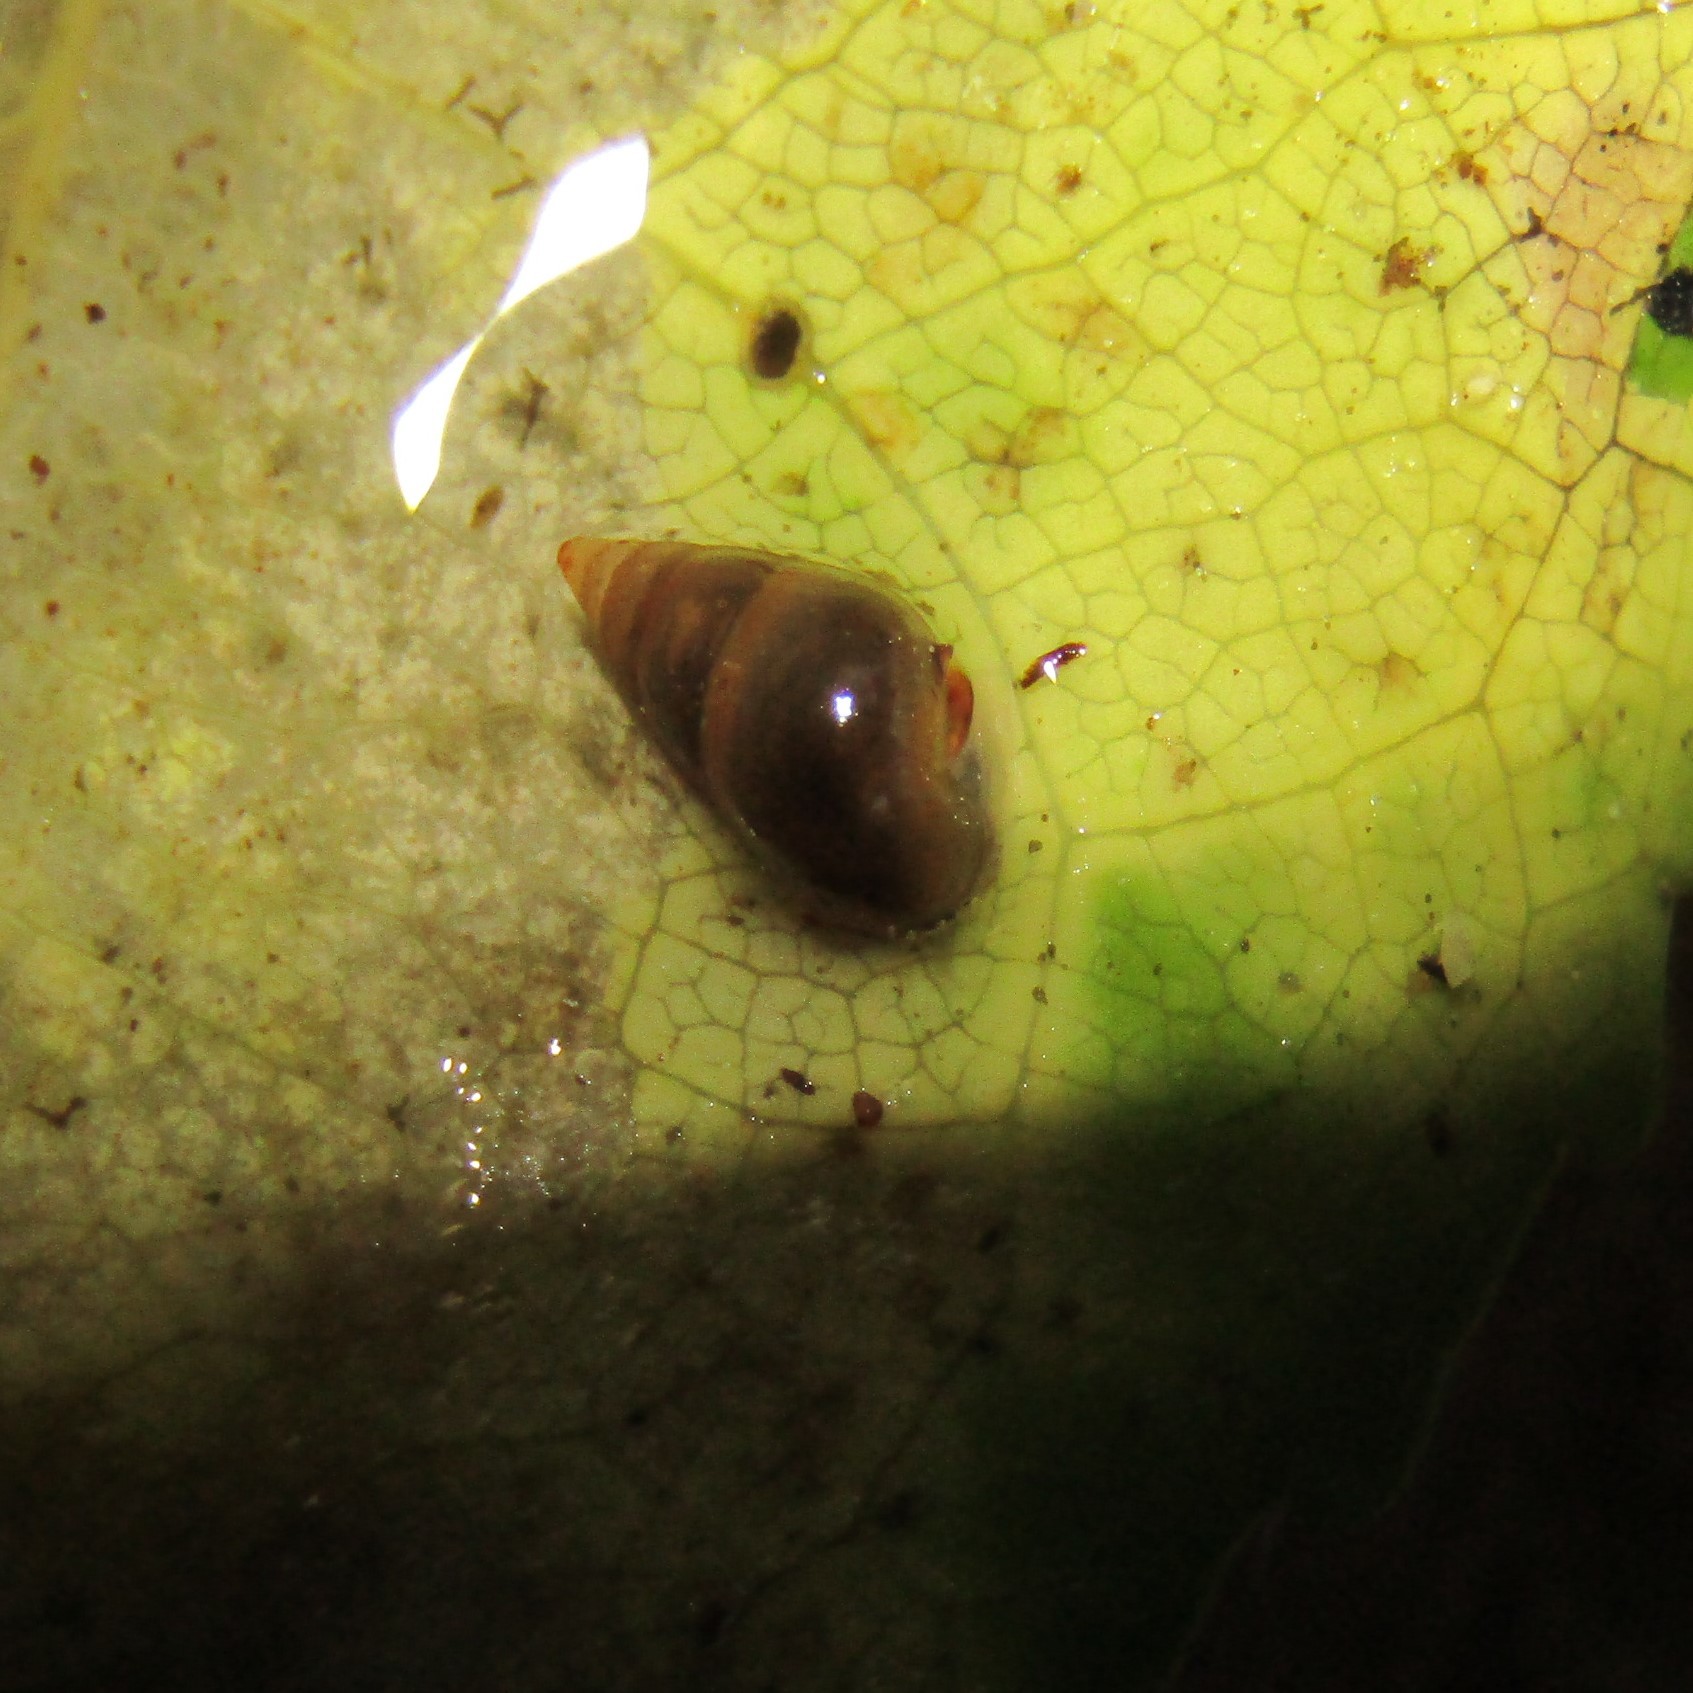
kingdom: Animalia
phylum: Mollusca
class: Gastropoda
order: Littorinimorpha
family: Tateidae
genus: Potamopyrgus
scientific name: Potamopyrgus antipodarum
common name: Jenkins' spire snail
